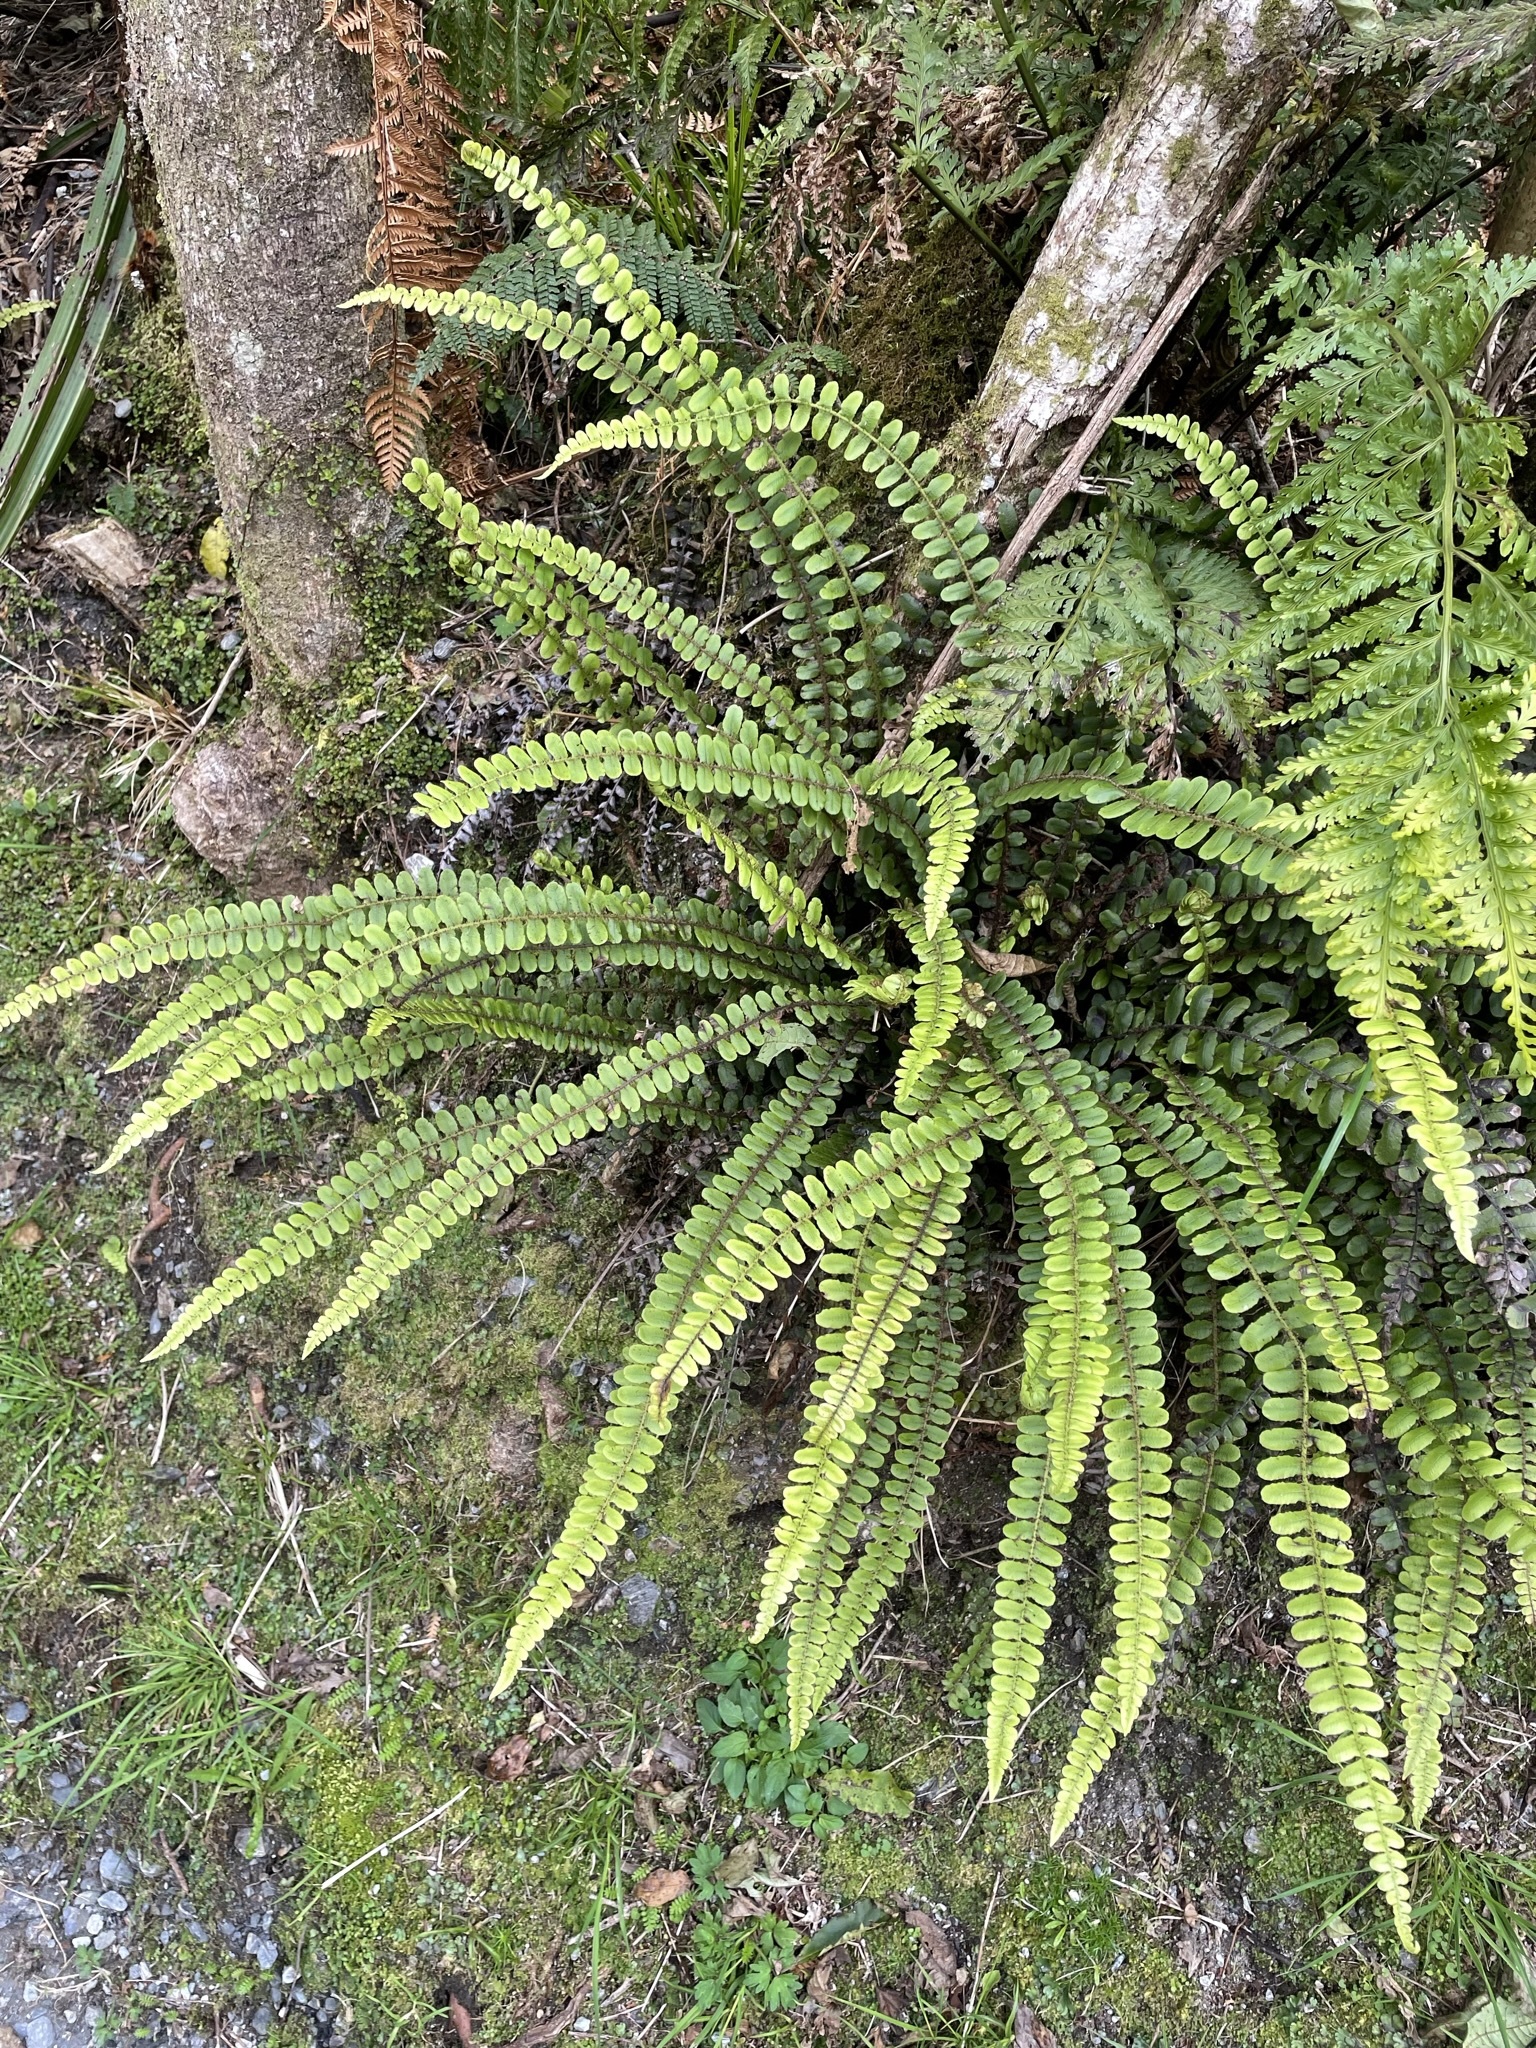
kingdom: Plantae
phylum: Tracheophyta
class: Polypodiopsida
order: Polypodiales
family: Blechnaceae
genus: Cranfillia
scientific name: Cranfillia fluviatilis
